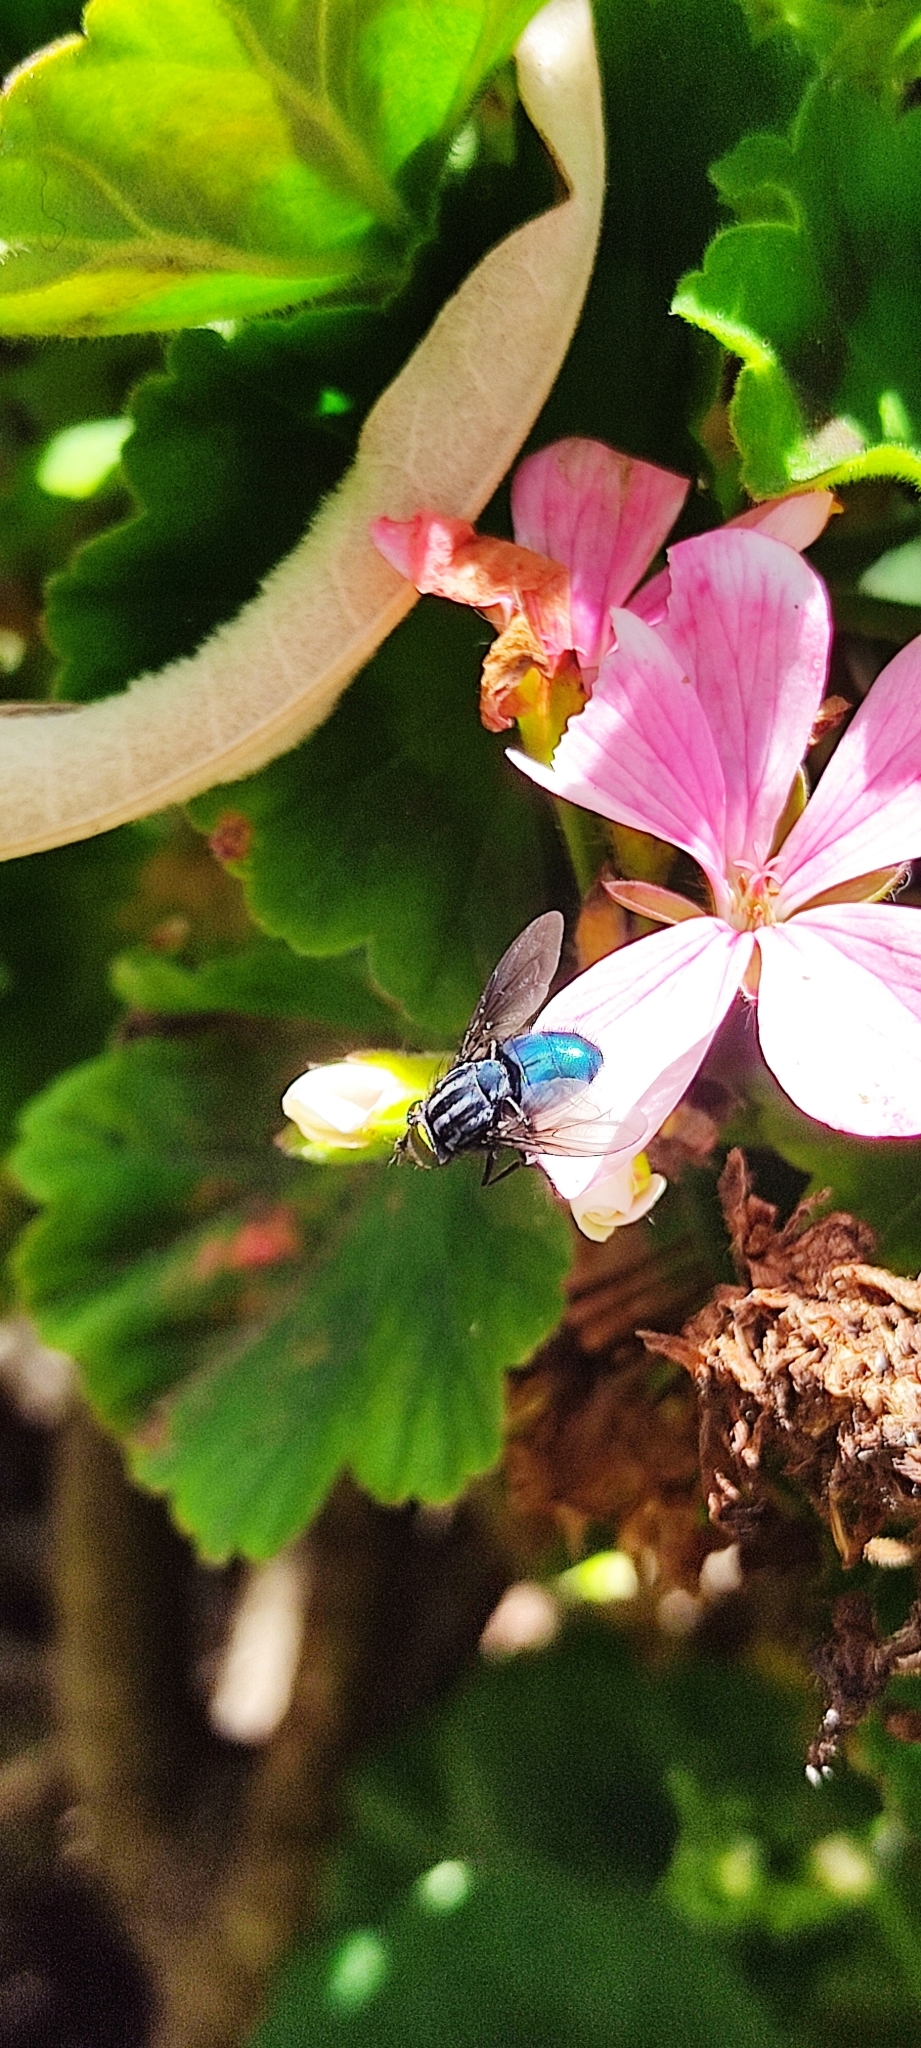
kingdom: Animalia
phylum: Arthropoda
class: Insecta
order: Diptera
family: Calliphoridae
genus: Sarconesia
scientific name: Sarconesia magellanica
